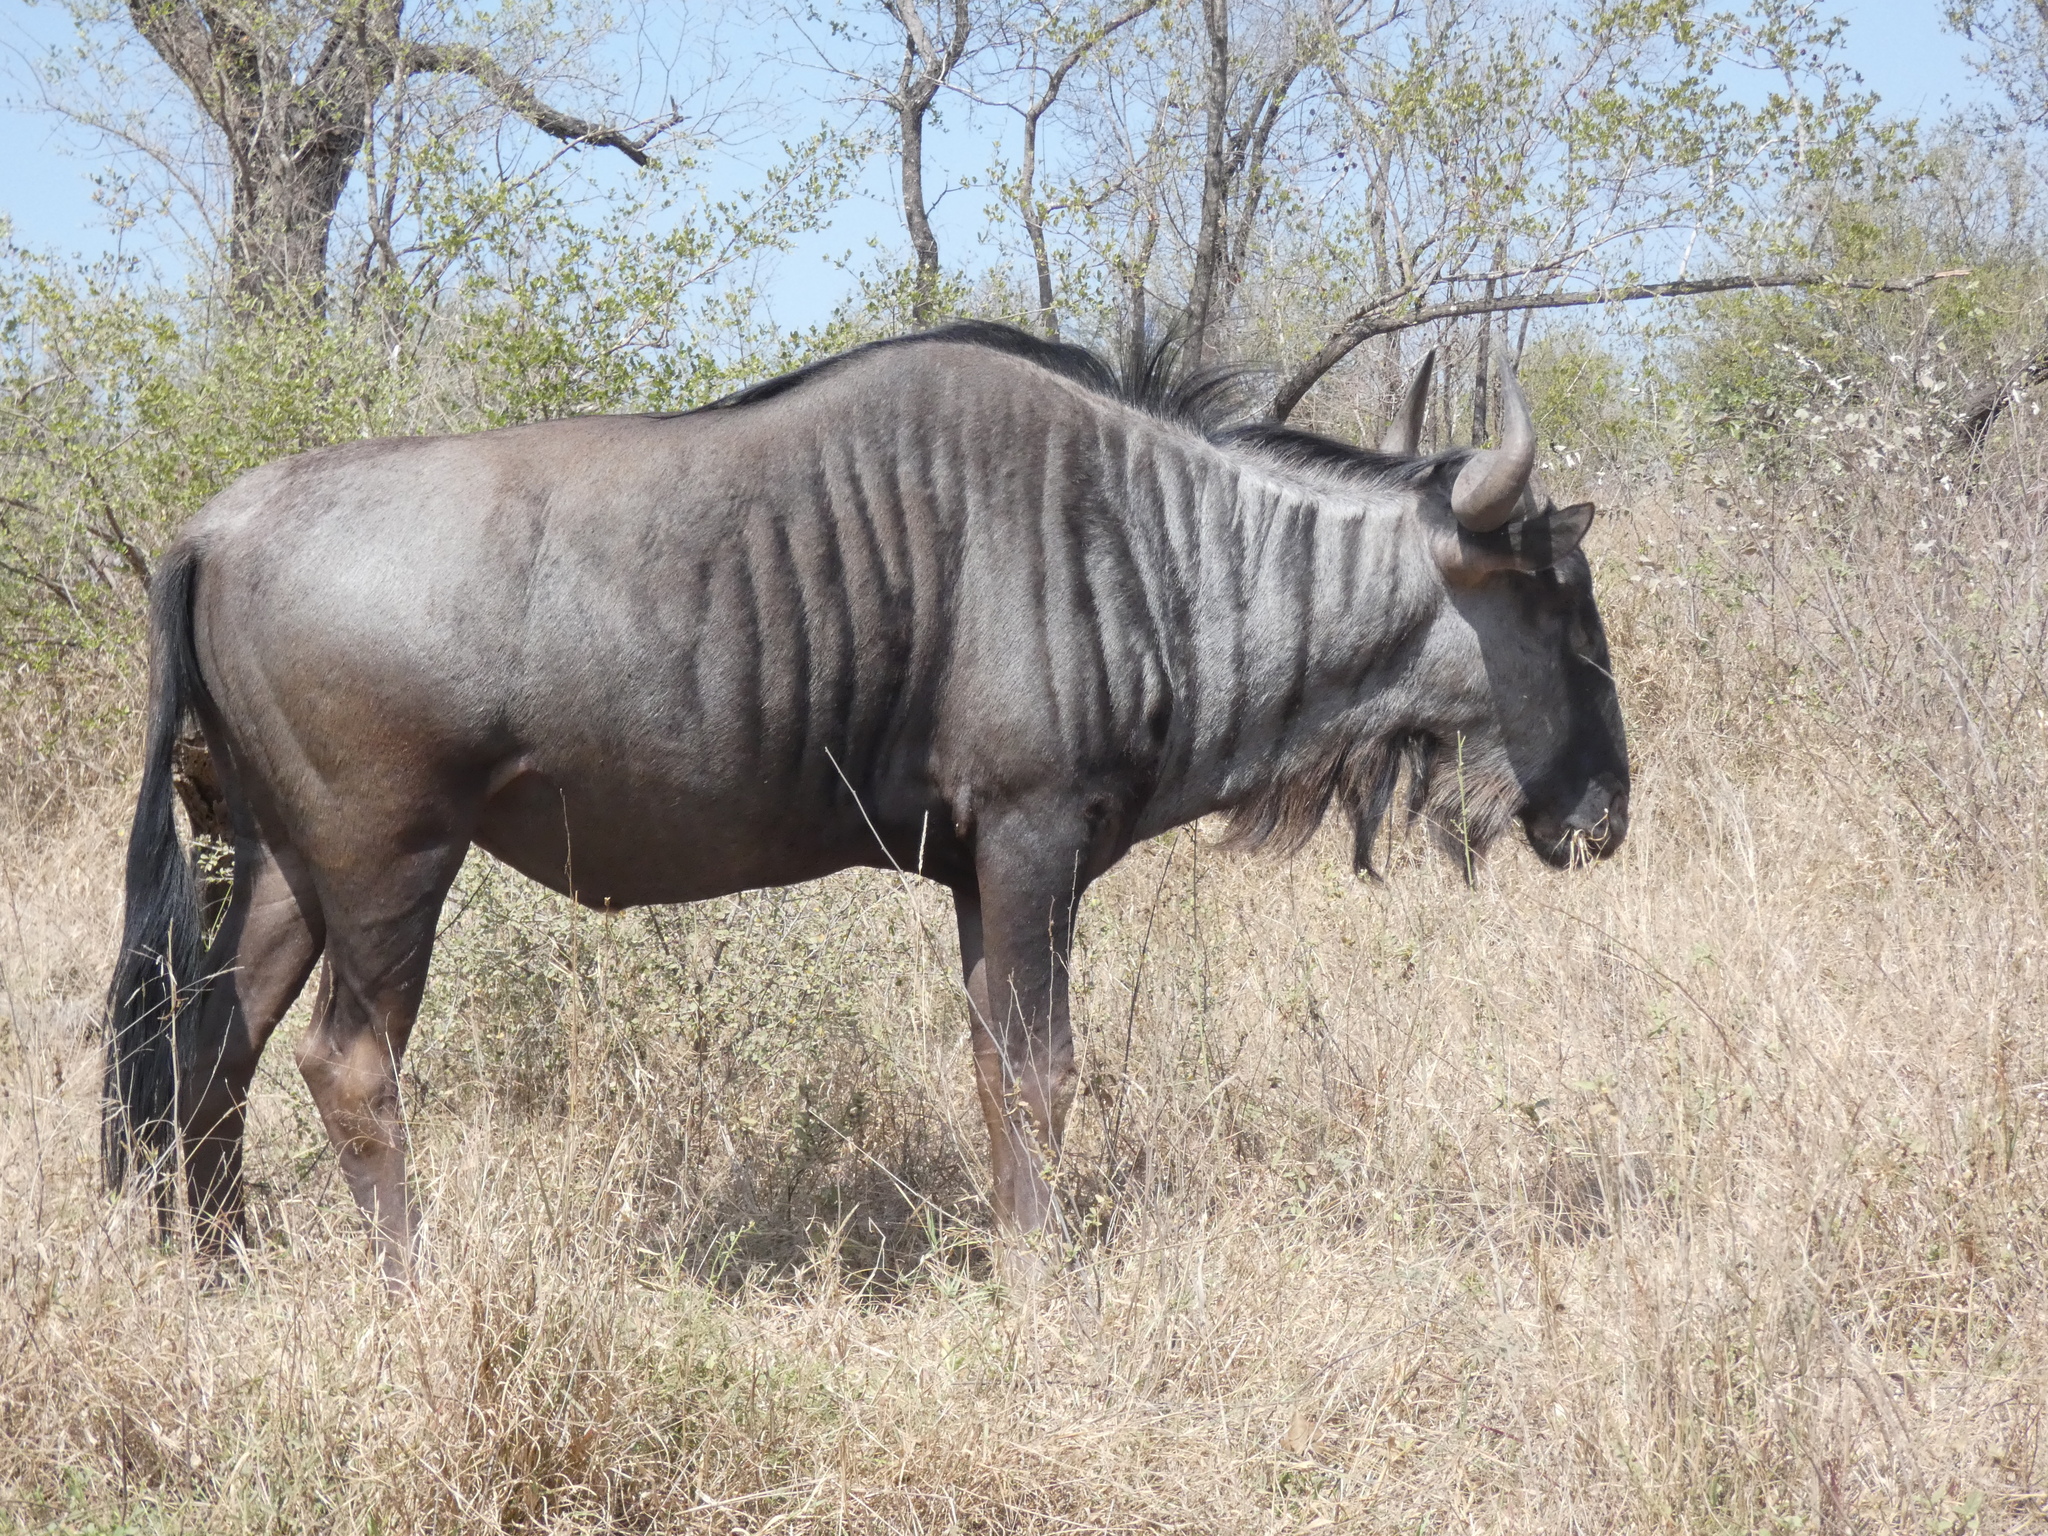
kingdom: Animalia
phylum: Chordata
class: Mammalia
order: Artiodactyla
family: Bovidae
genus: Connochaetes
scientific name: Connochaetes taurinus
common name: Blue wildebeest
